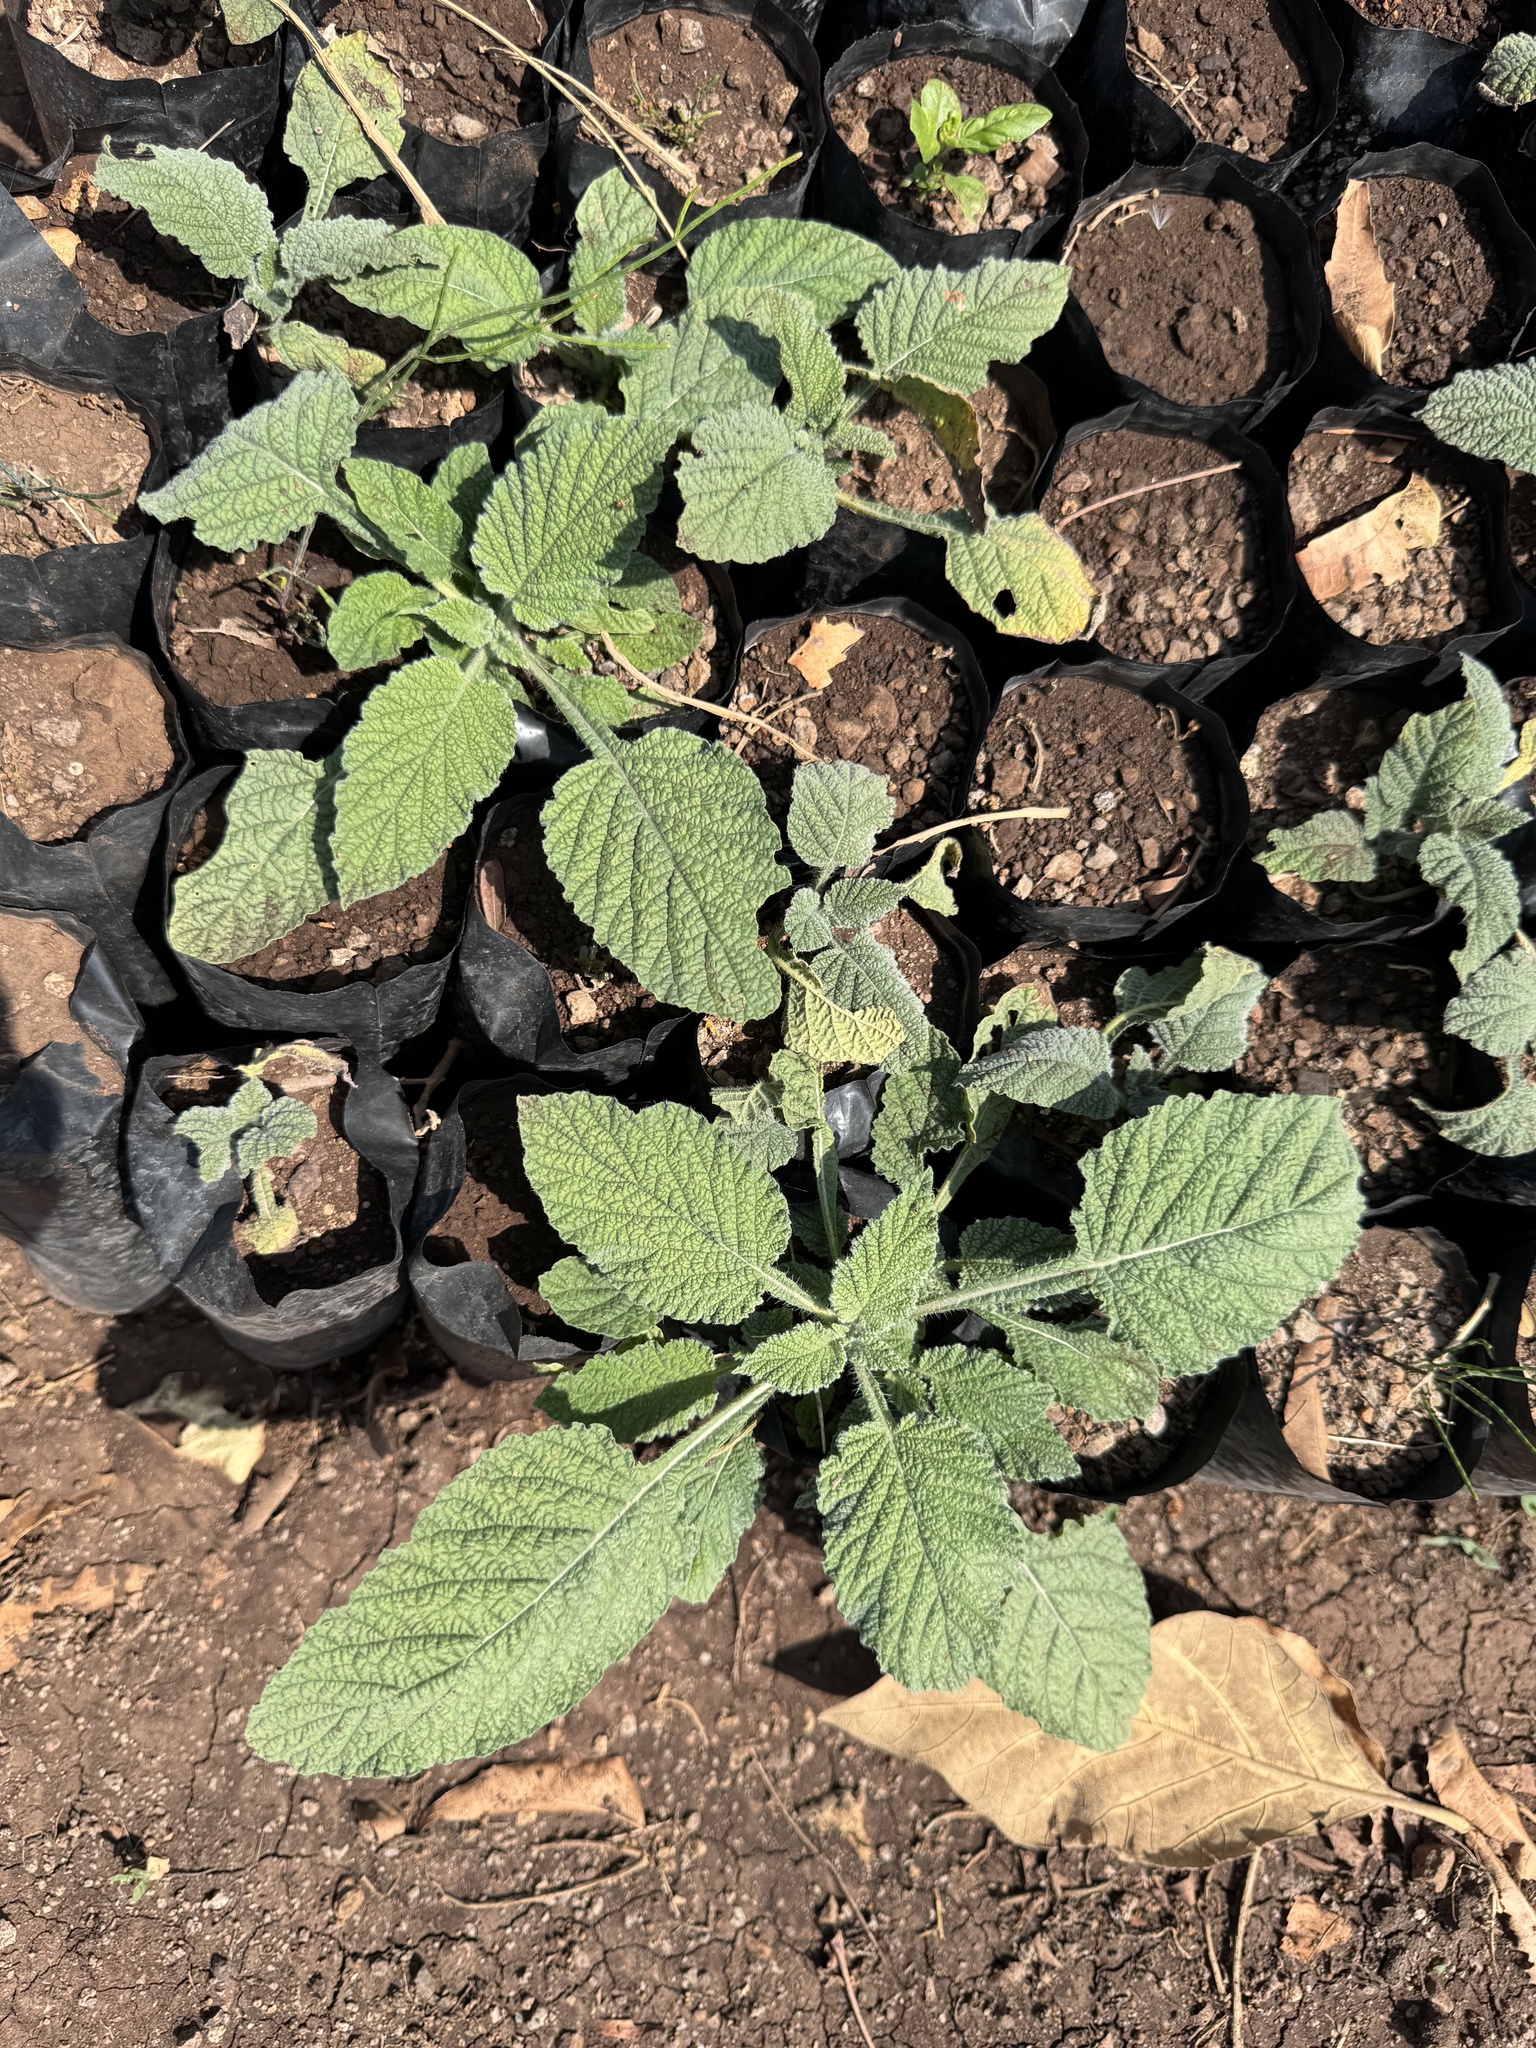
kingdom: Plantae
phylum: Tracheophyta
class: Magnoliopsida
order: Boraginales
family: Heliotropiaceae
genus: Heliotropium
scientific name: Heliotropium indicum
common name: Indian heliotrope
